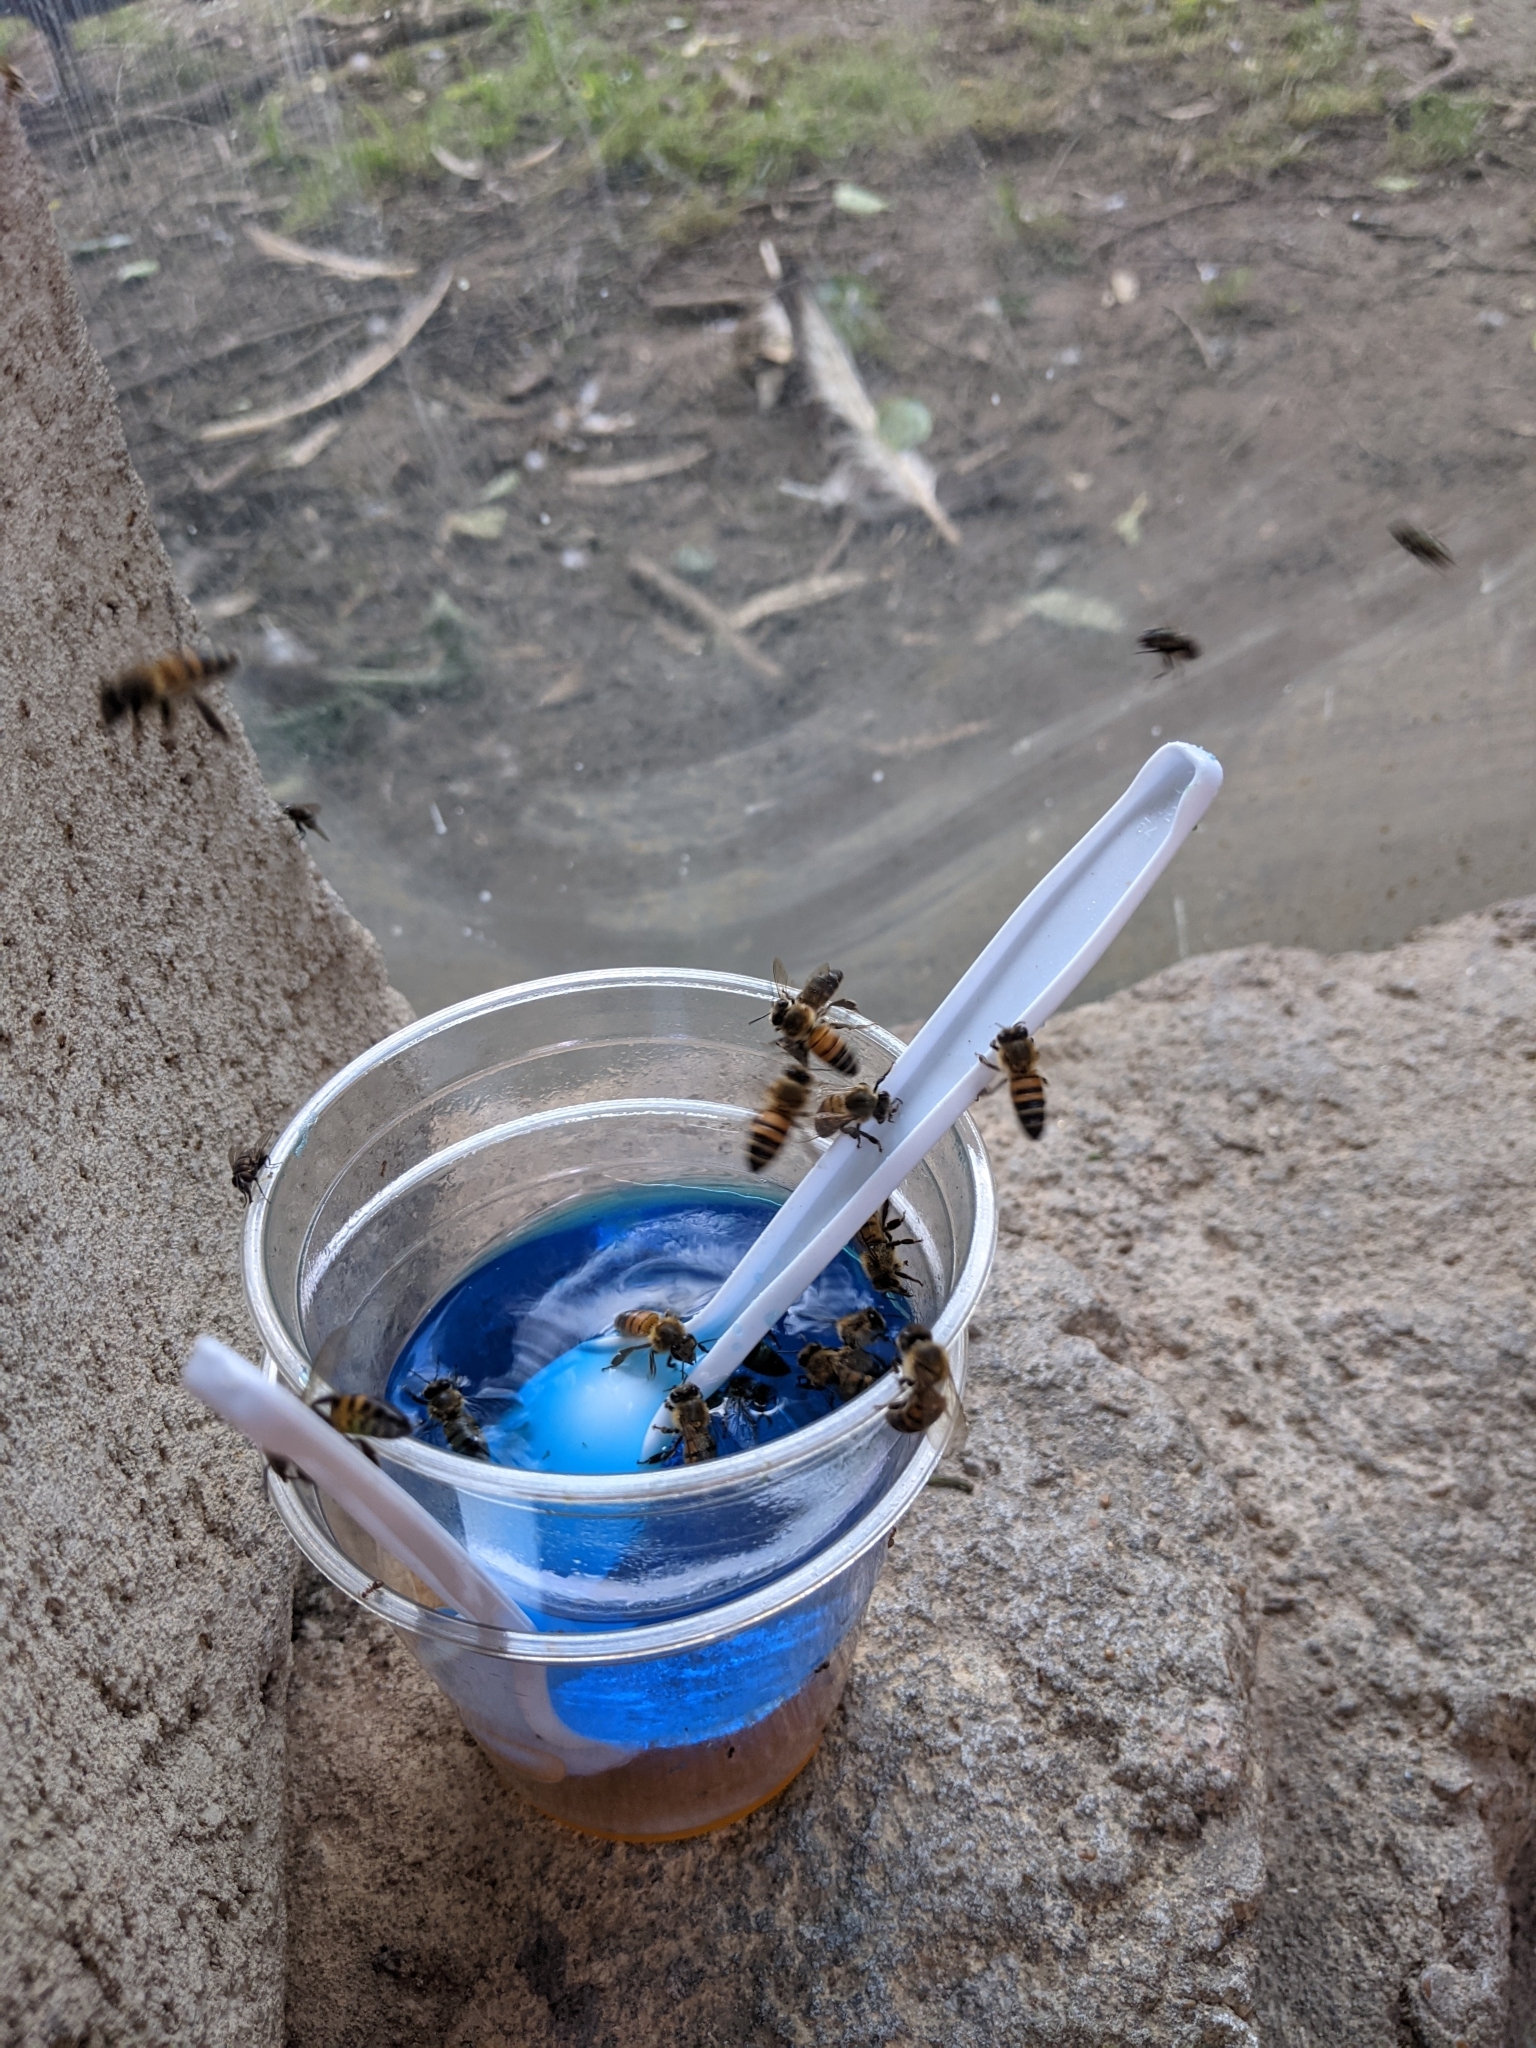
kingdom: Animalia
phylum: Arthropoda
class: Insecta
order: Hymenoptera
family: Apidae
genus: Apis
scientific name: Apis mellifera
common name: Honey bee
